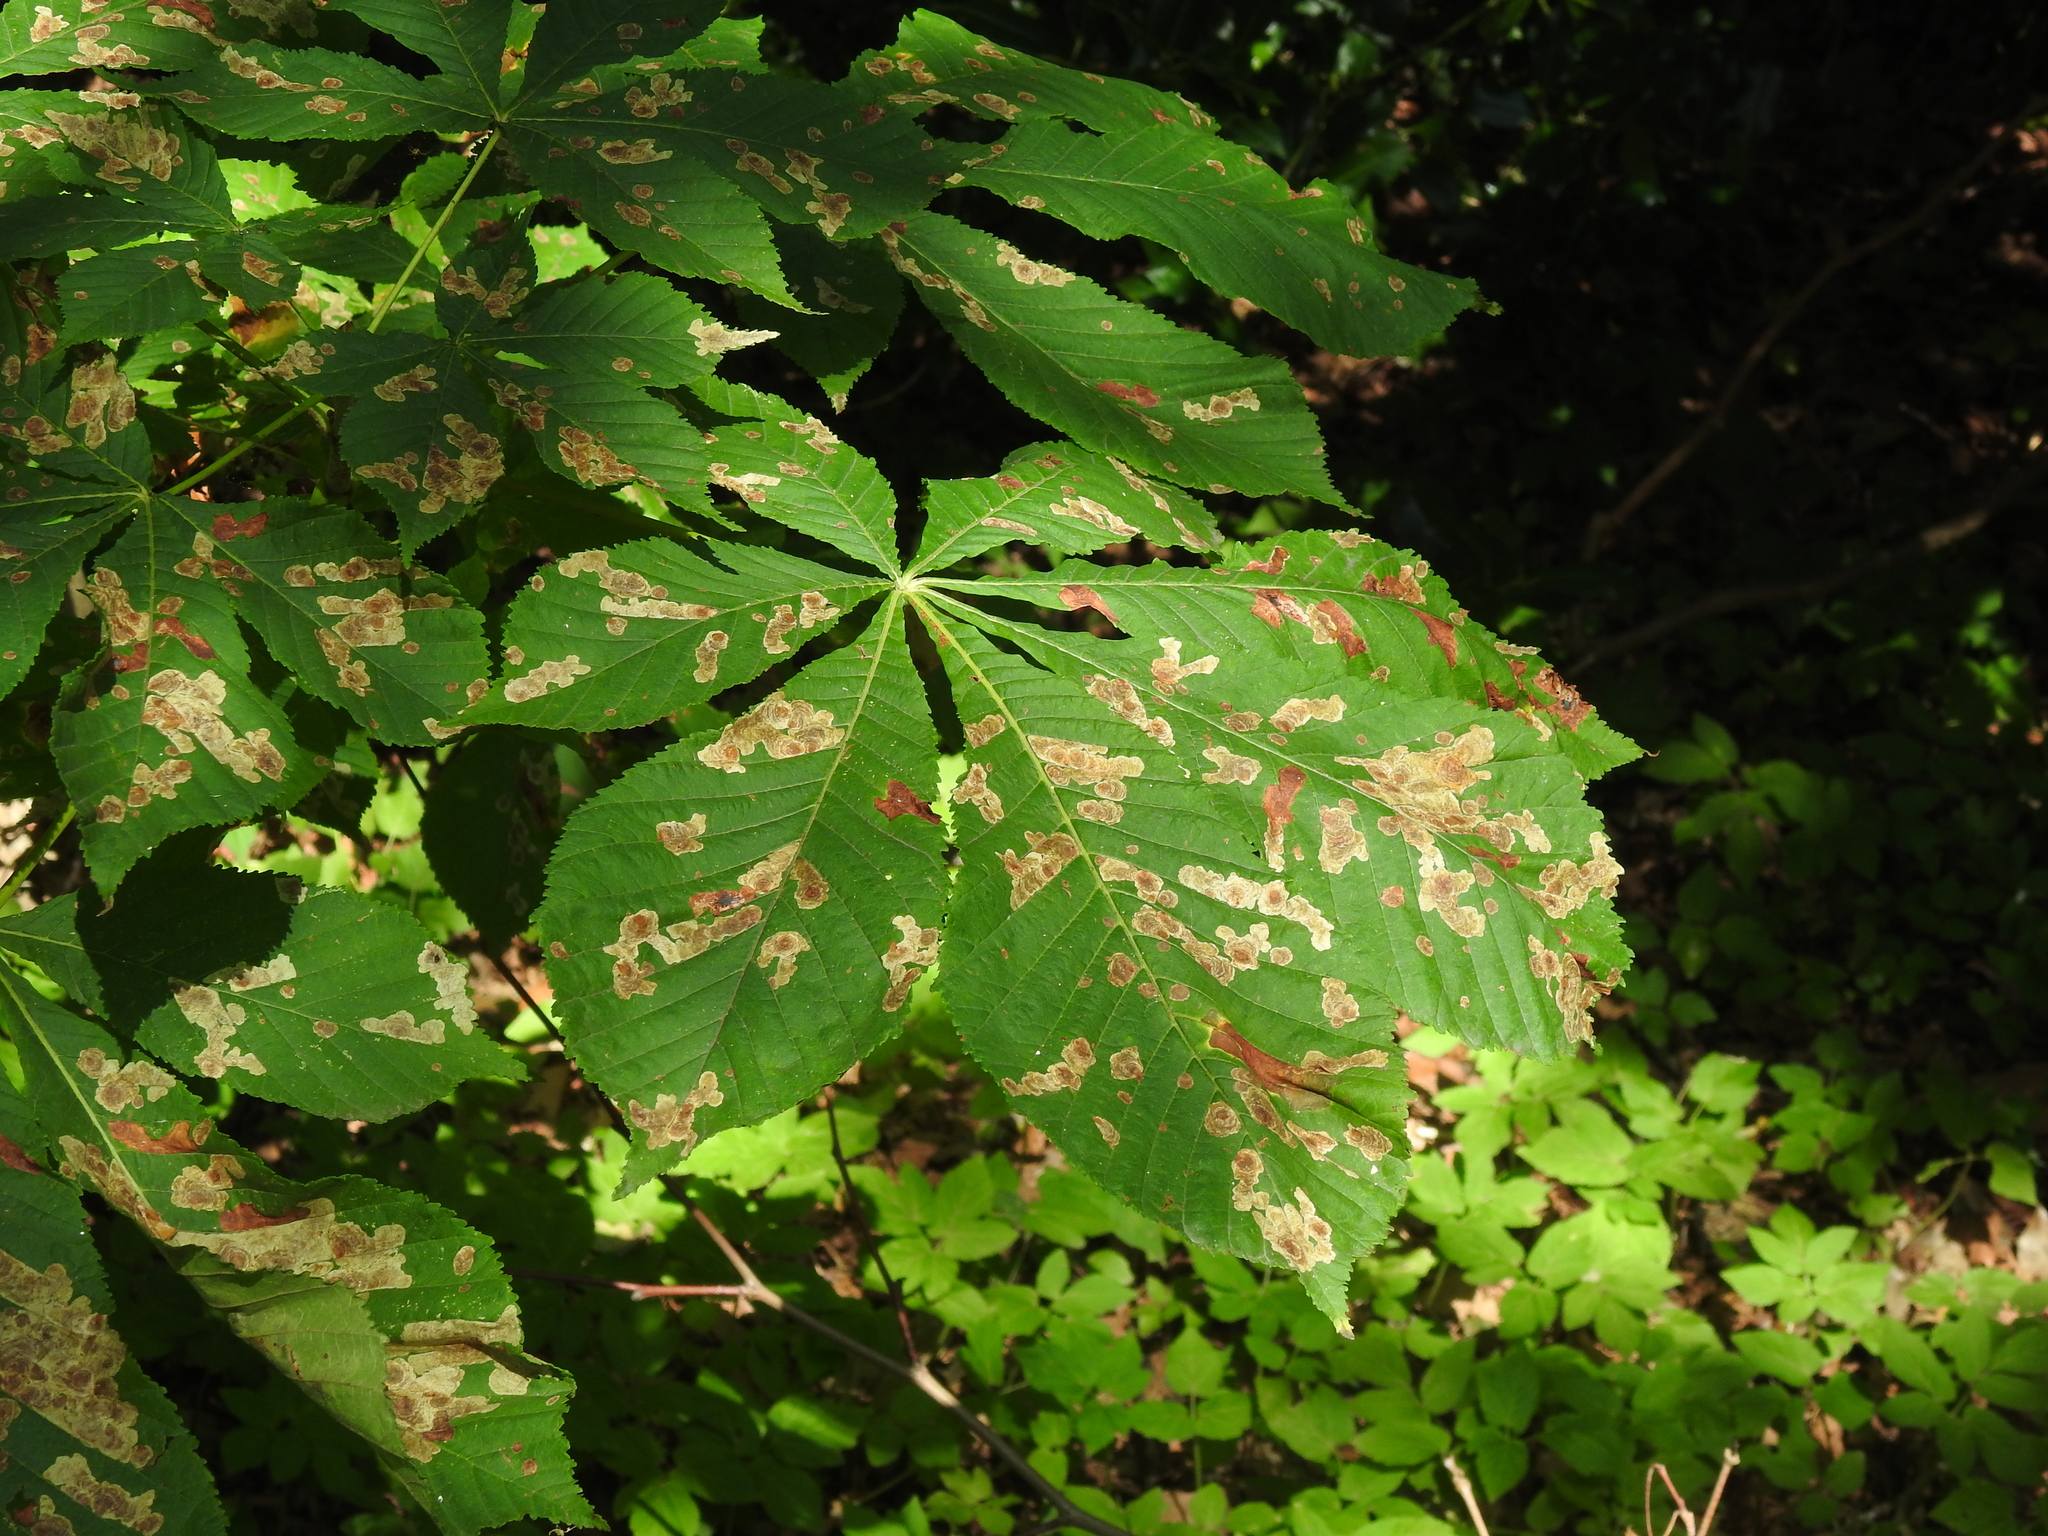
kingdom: Animalia
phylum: Arthropoda
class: Insecta
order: Lepidoptera
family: Gracillariidae
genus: Cameraria
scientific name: Cameraria ohridella
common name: Horse-chestnut leaf-miner
